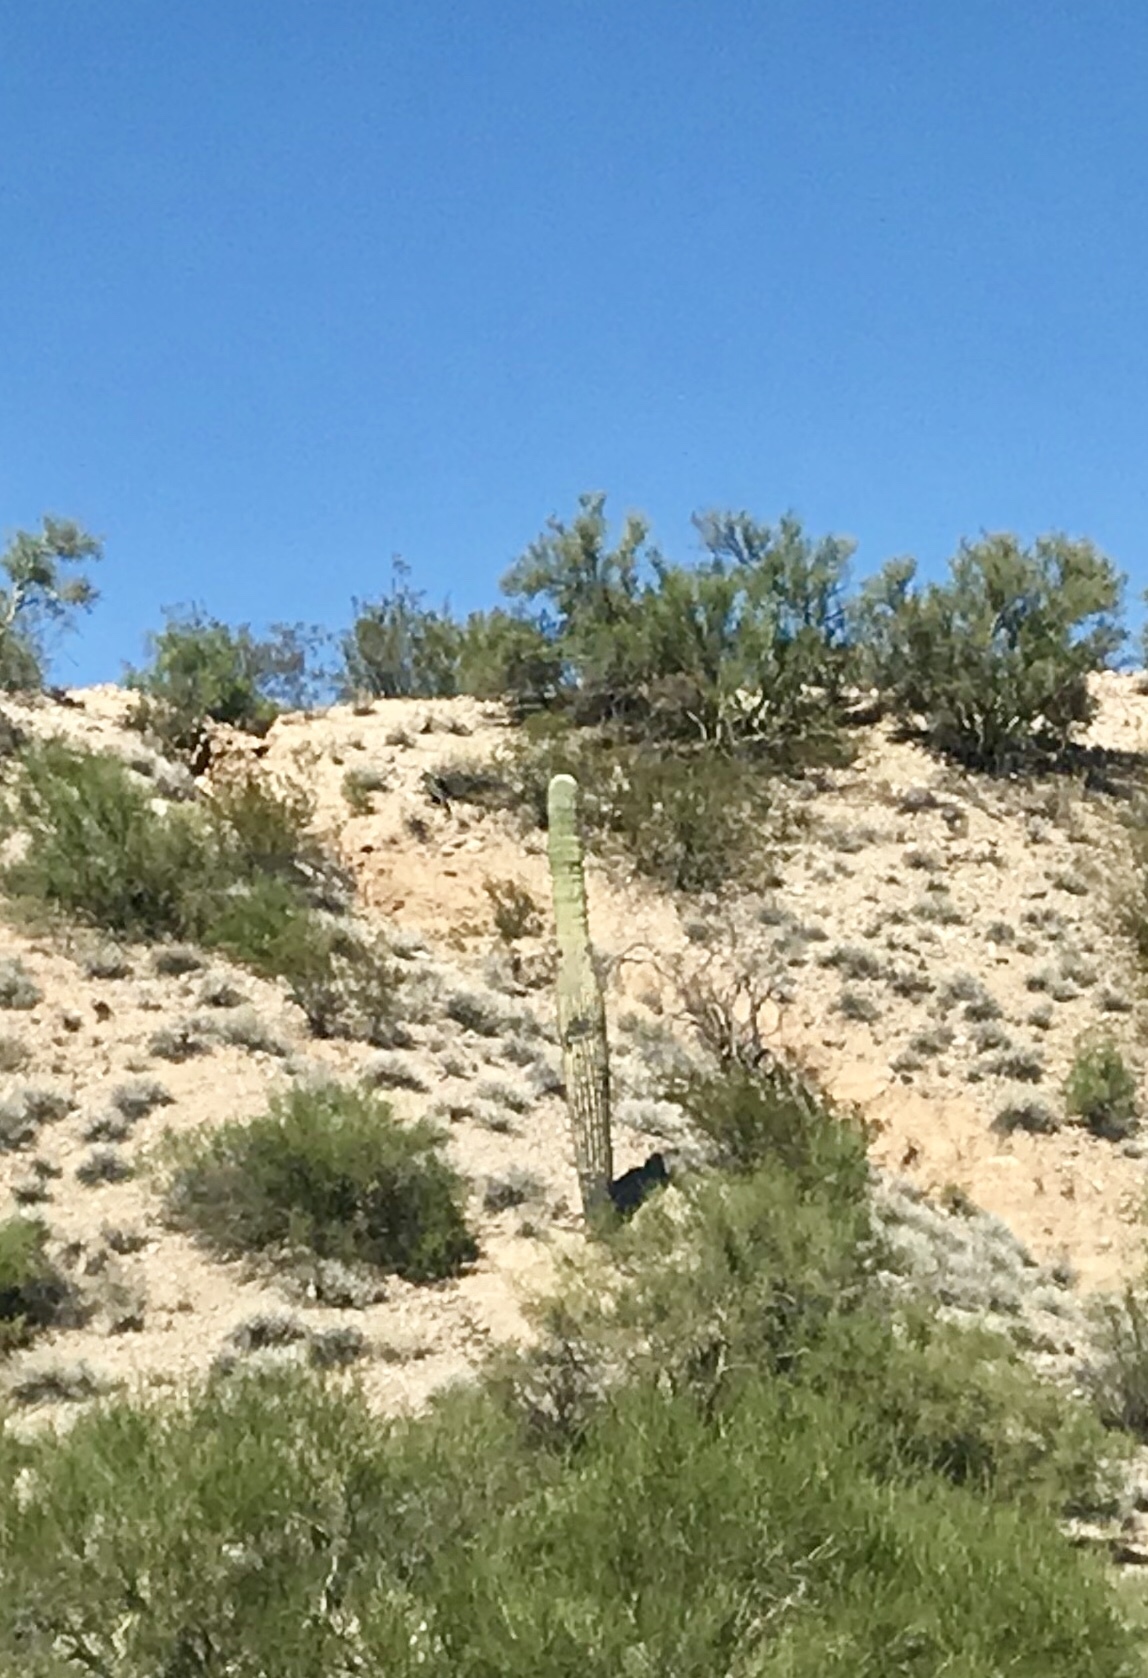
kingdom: Plantae
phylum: Tracheophyta
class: Magnoliopsida
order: Caryophyllales
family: Cactaceae
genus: Carnegiea
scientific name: Carnegiea gigantea
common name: Saguaro
